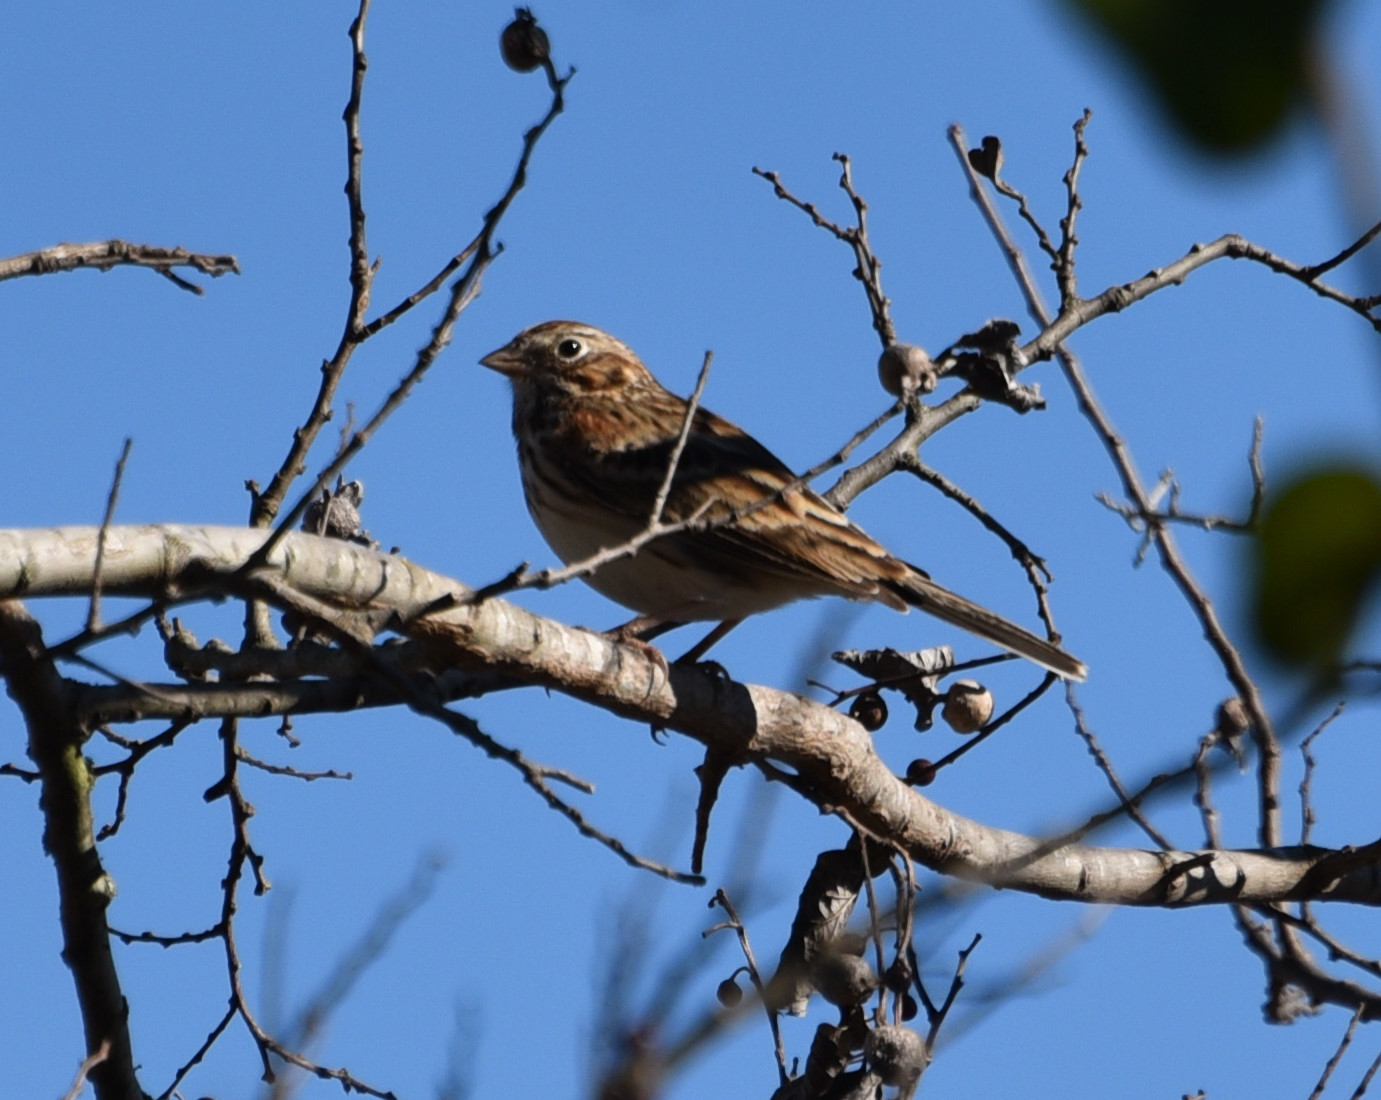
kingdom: Animalia
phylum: Chordata
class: Aves
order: Passeriformes
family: Passerellidae
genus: Pooecetes
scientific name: Pooecetes gramineus
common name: Vesper sparrow
